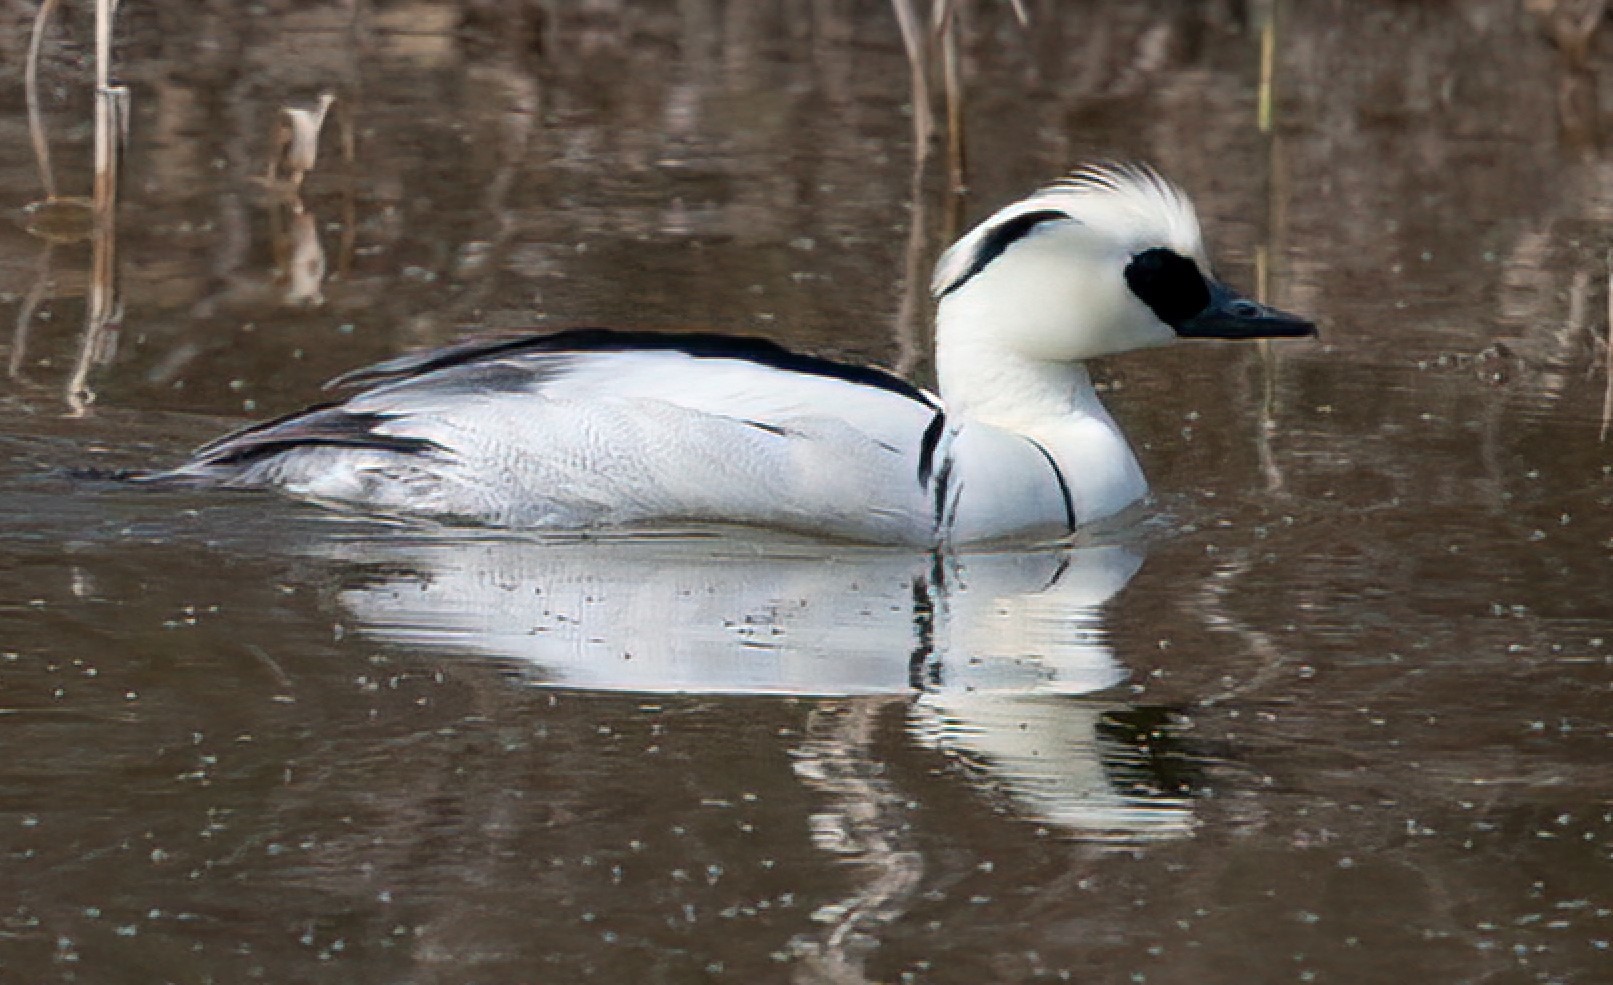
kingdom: Animalia
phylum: Chordata
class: Aves
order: Anseriformes
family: Anatidae
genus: Mergellus
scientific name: Mergellus albellus
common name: Smew
